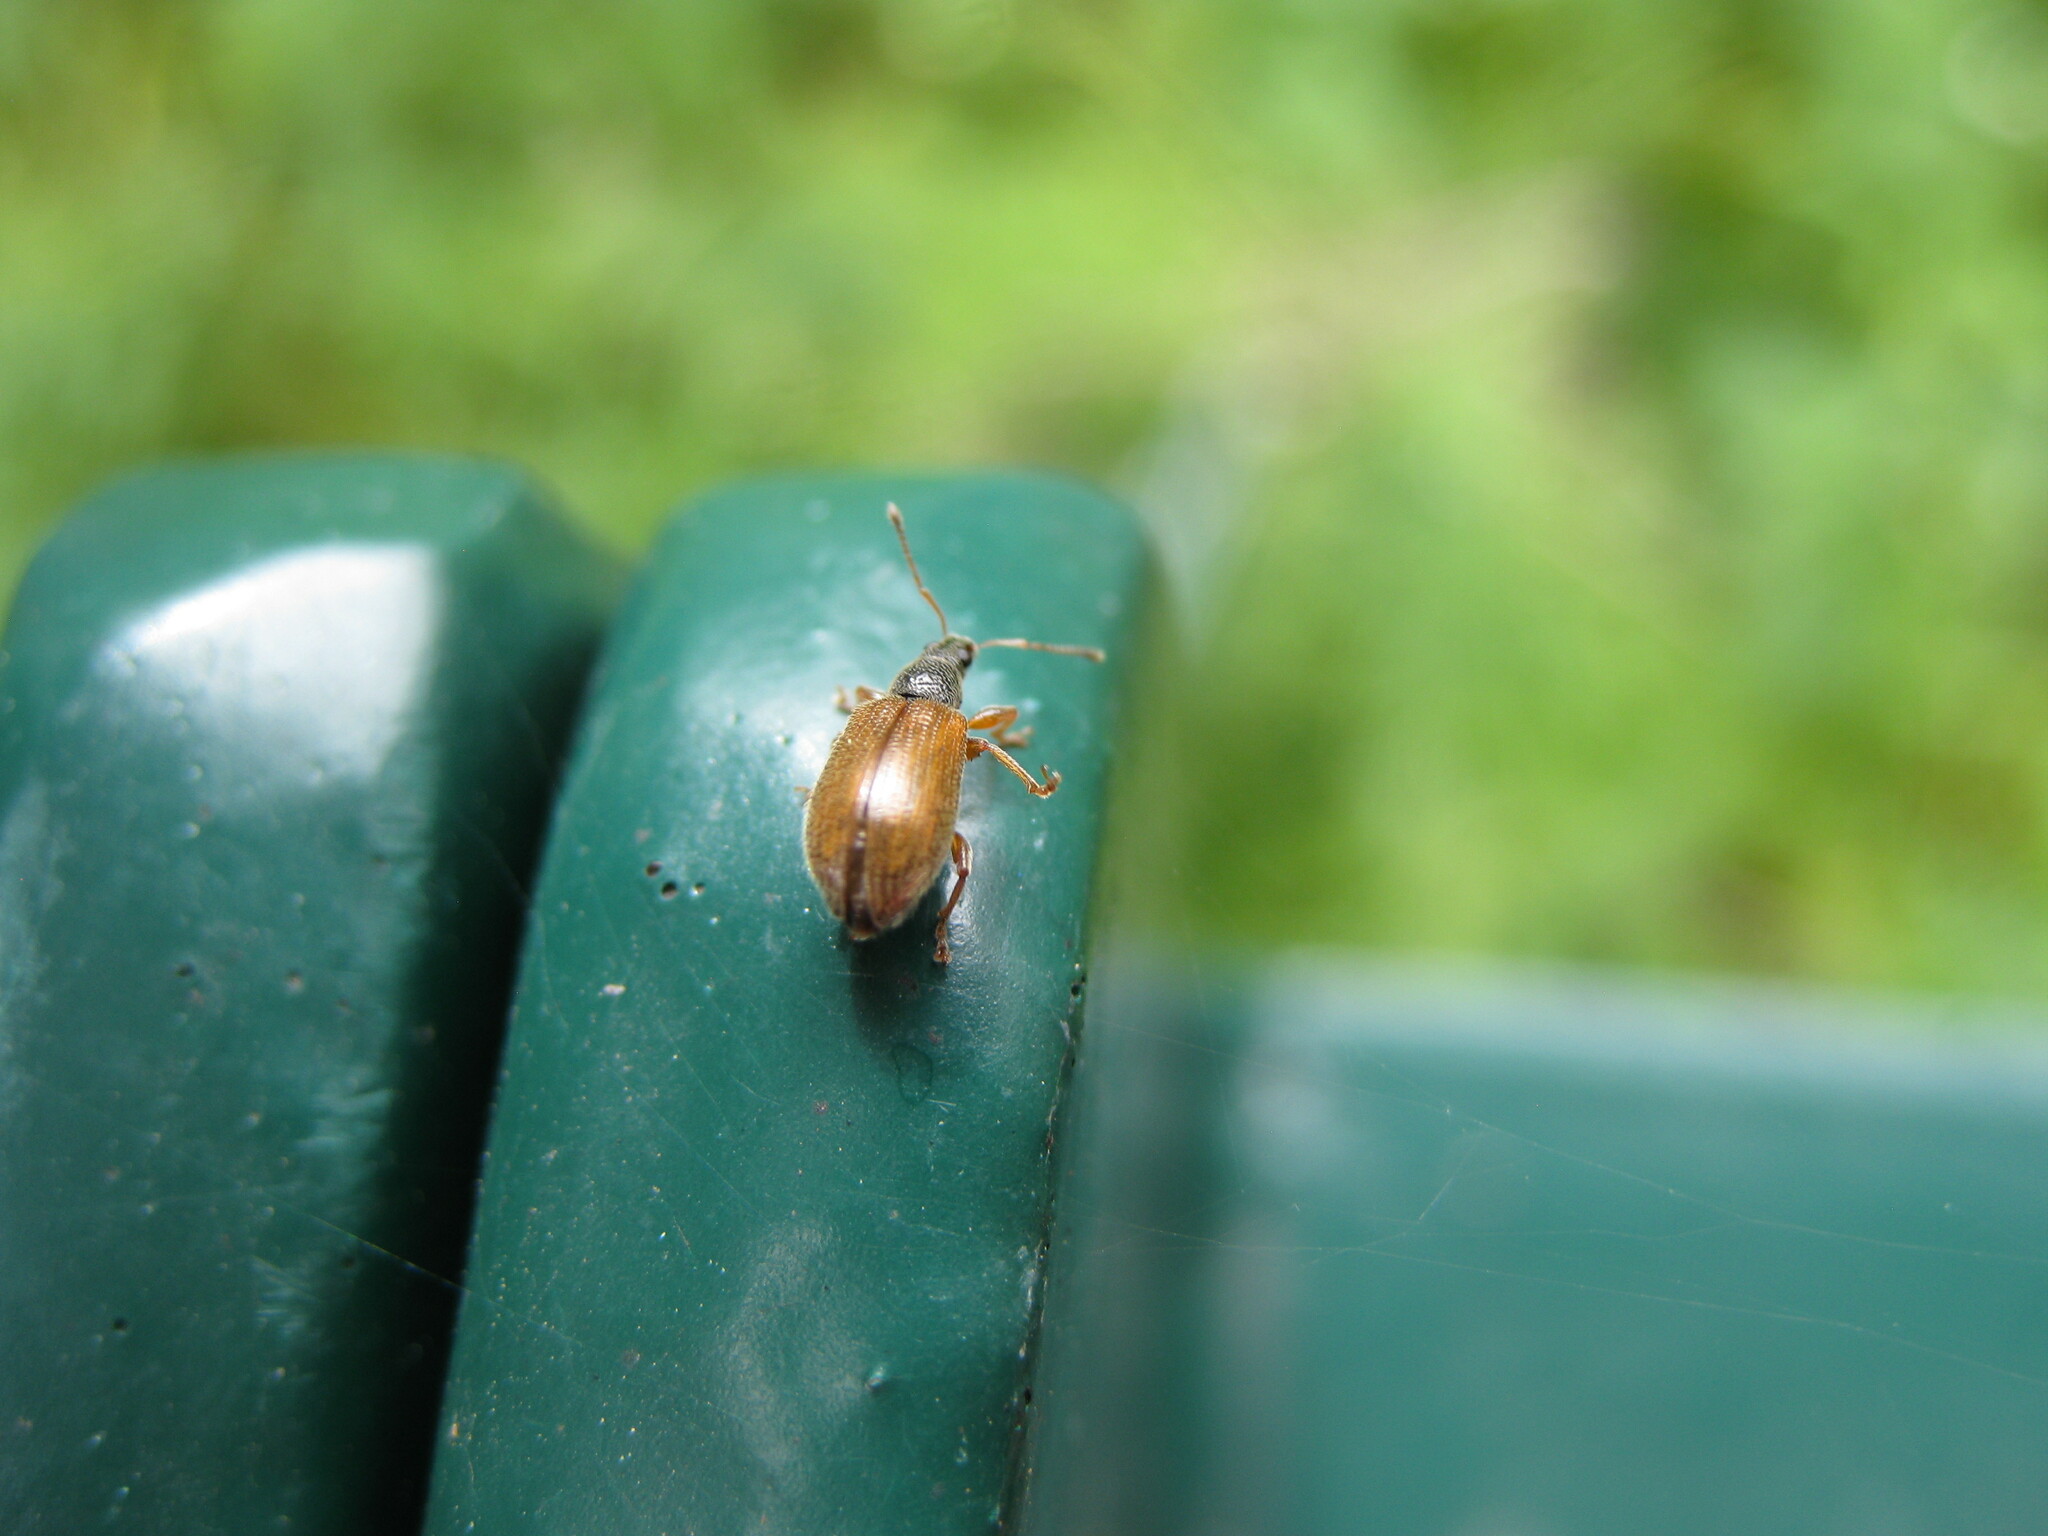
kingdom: Animalia
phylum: Arthropoda
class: Insecta
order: Coleoptera
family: Curculionidae
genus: Phyllobius
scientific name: Phyllobius oblongus
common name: Brown leaf weevil
